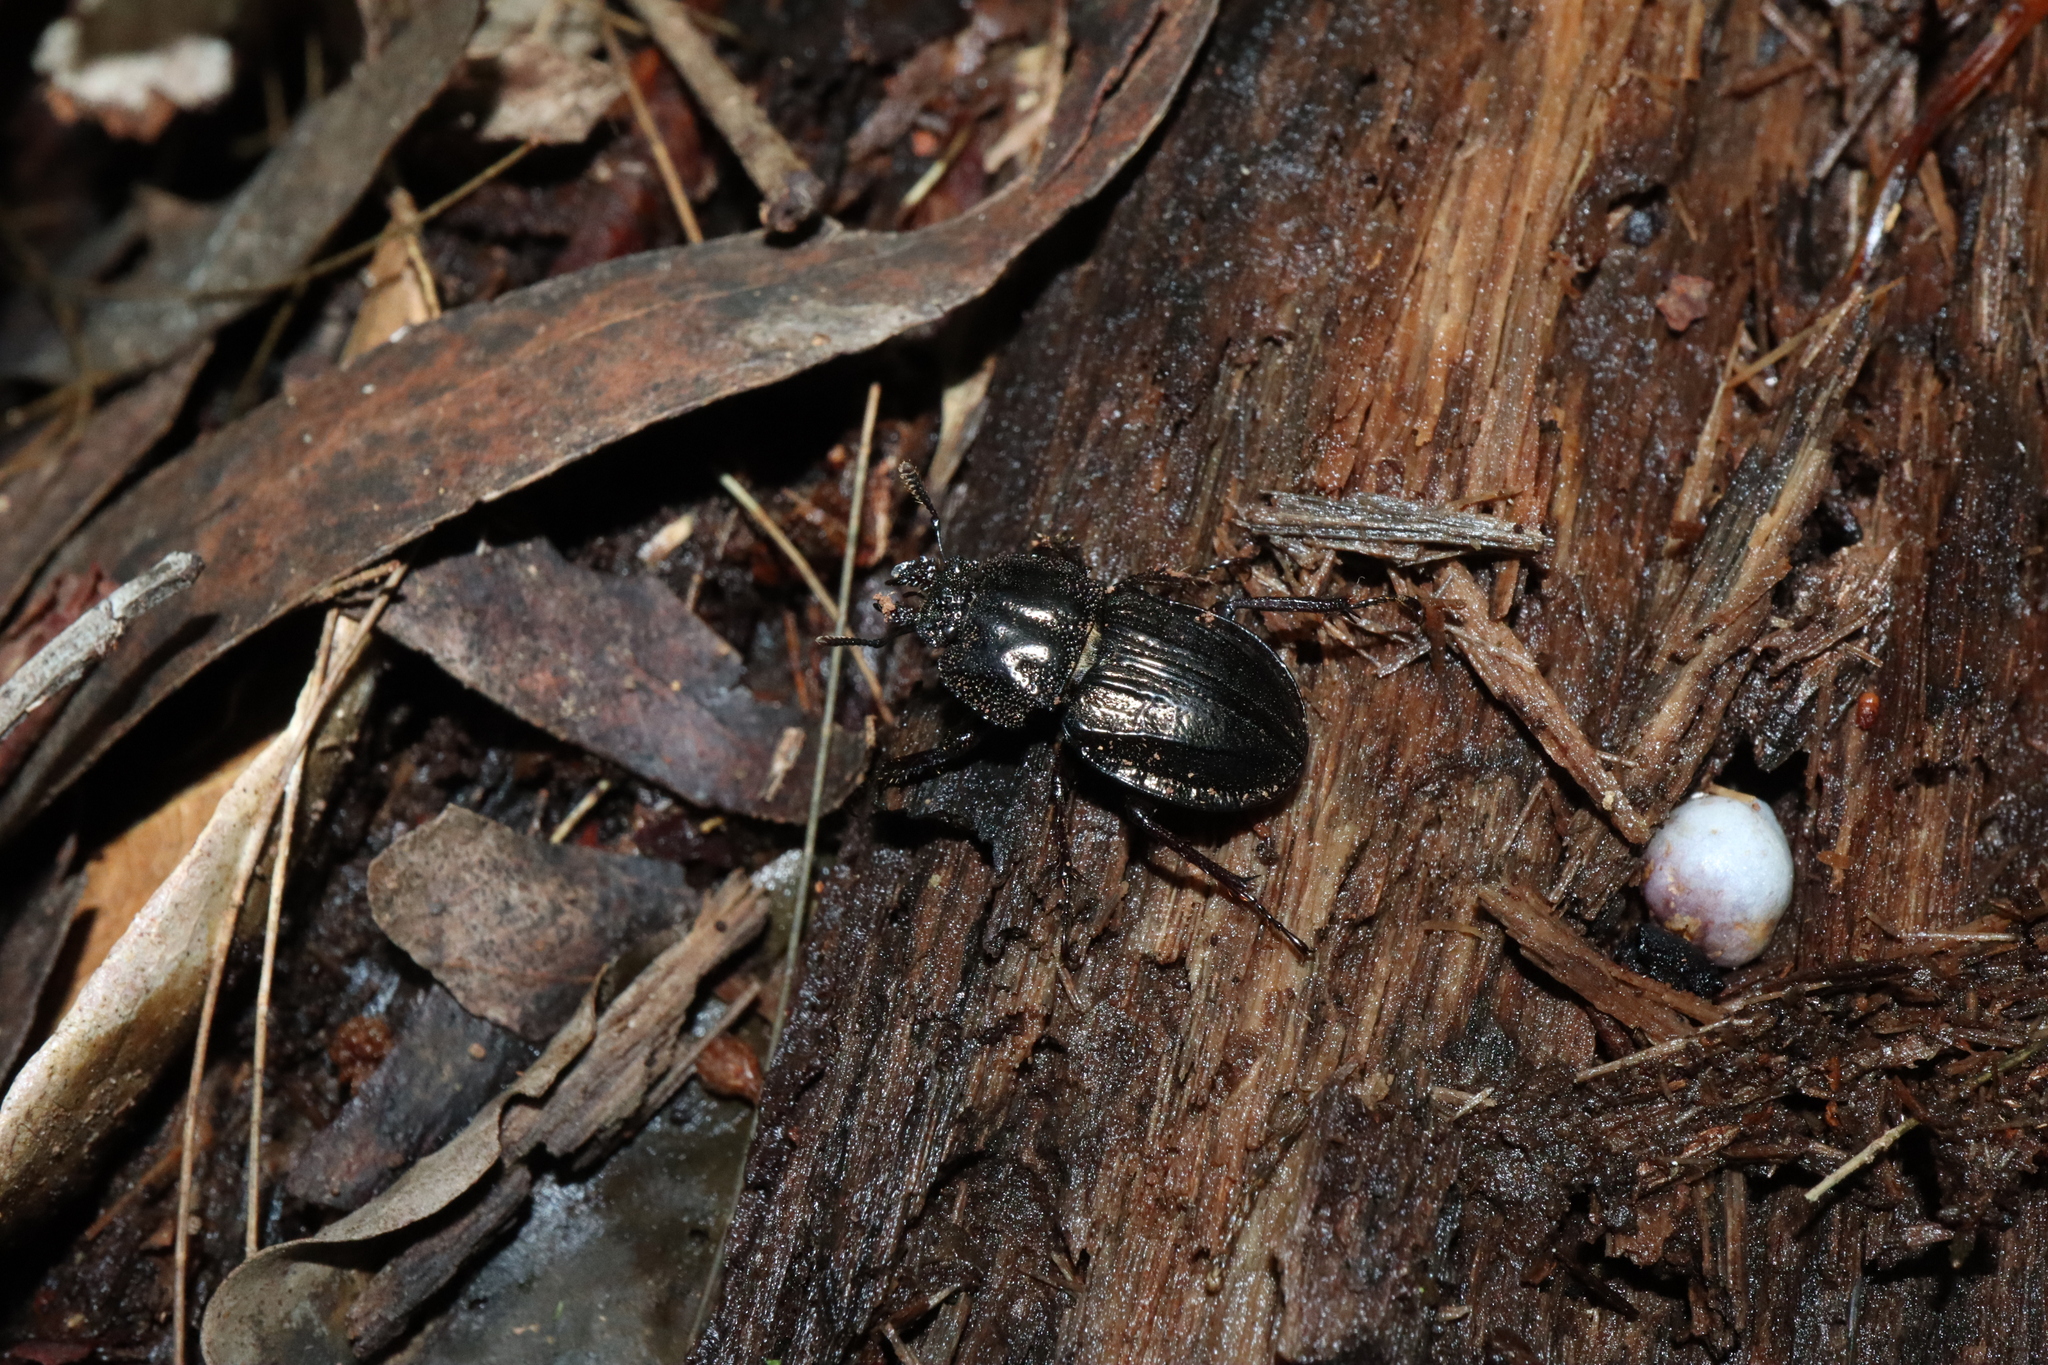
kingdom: Animalia
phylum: Arthropoda
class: Insecta
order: Coleoptera
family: Lucanidae
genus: Safrina
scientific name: Safrina grandis
